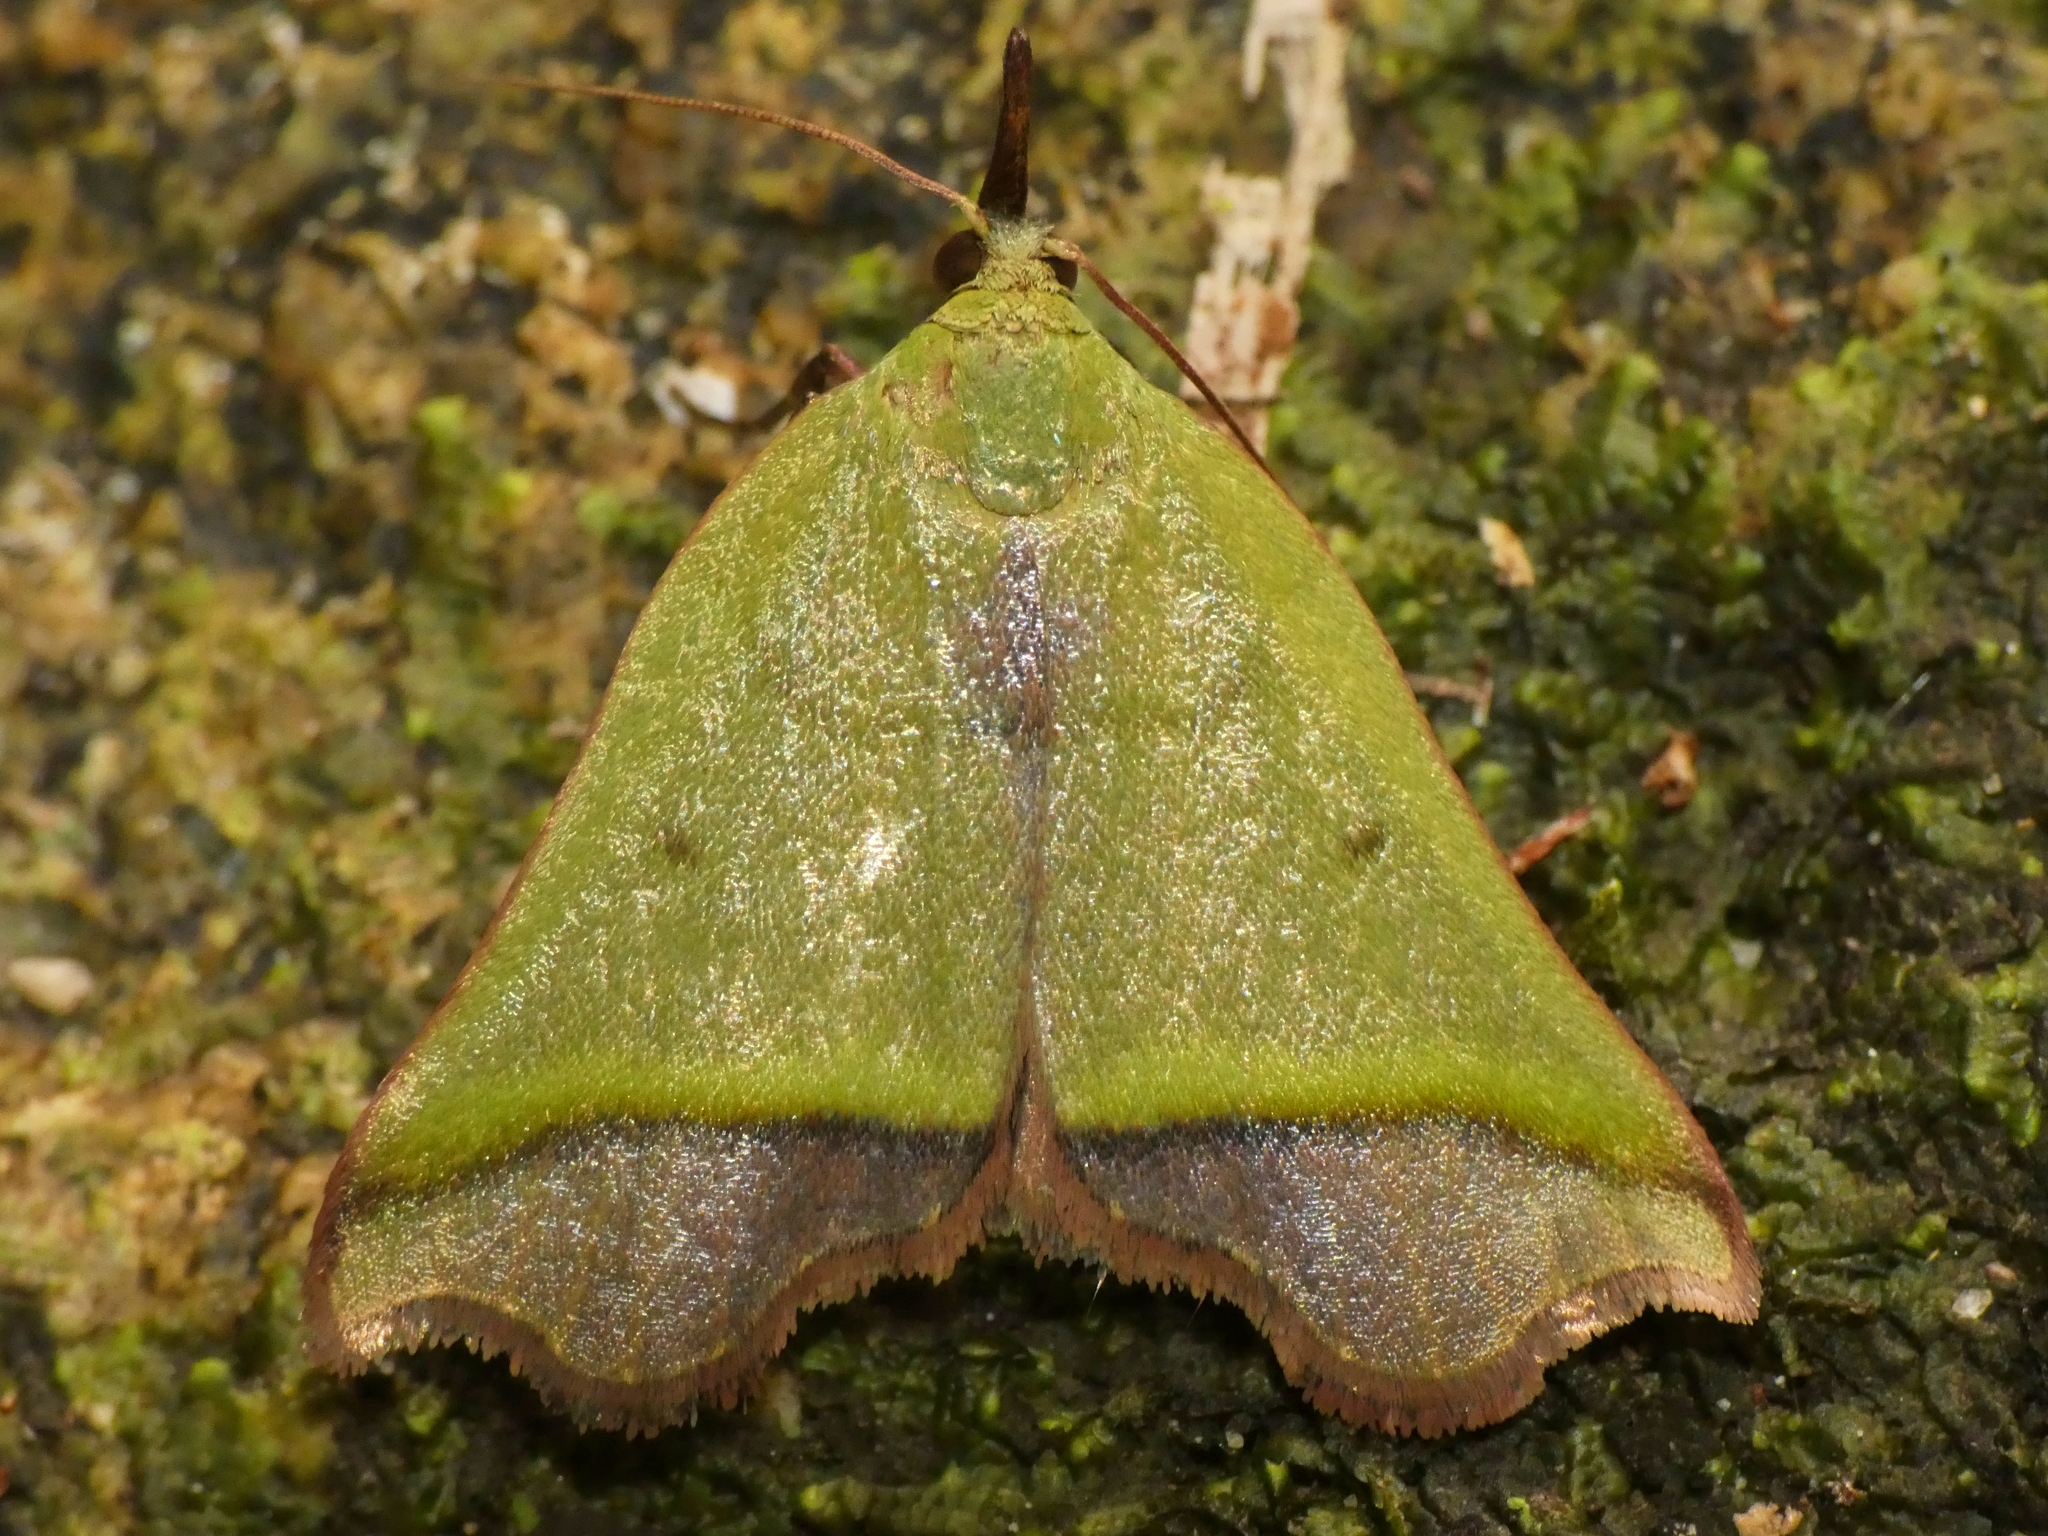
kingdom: Animalia
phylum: Arthropoda
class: Insecta
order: Lepidoptera
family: Pyralidae
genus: Macna
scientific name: Macna oppositalis
